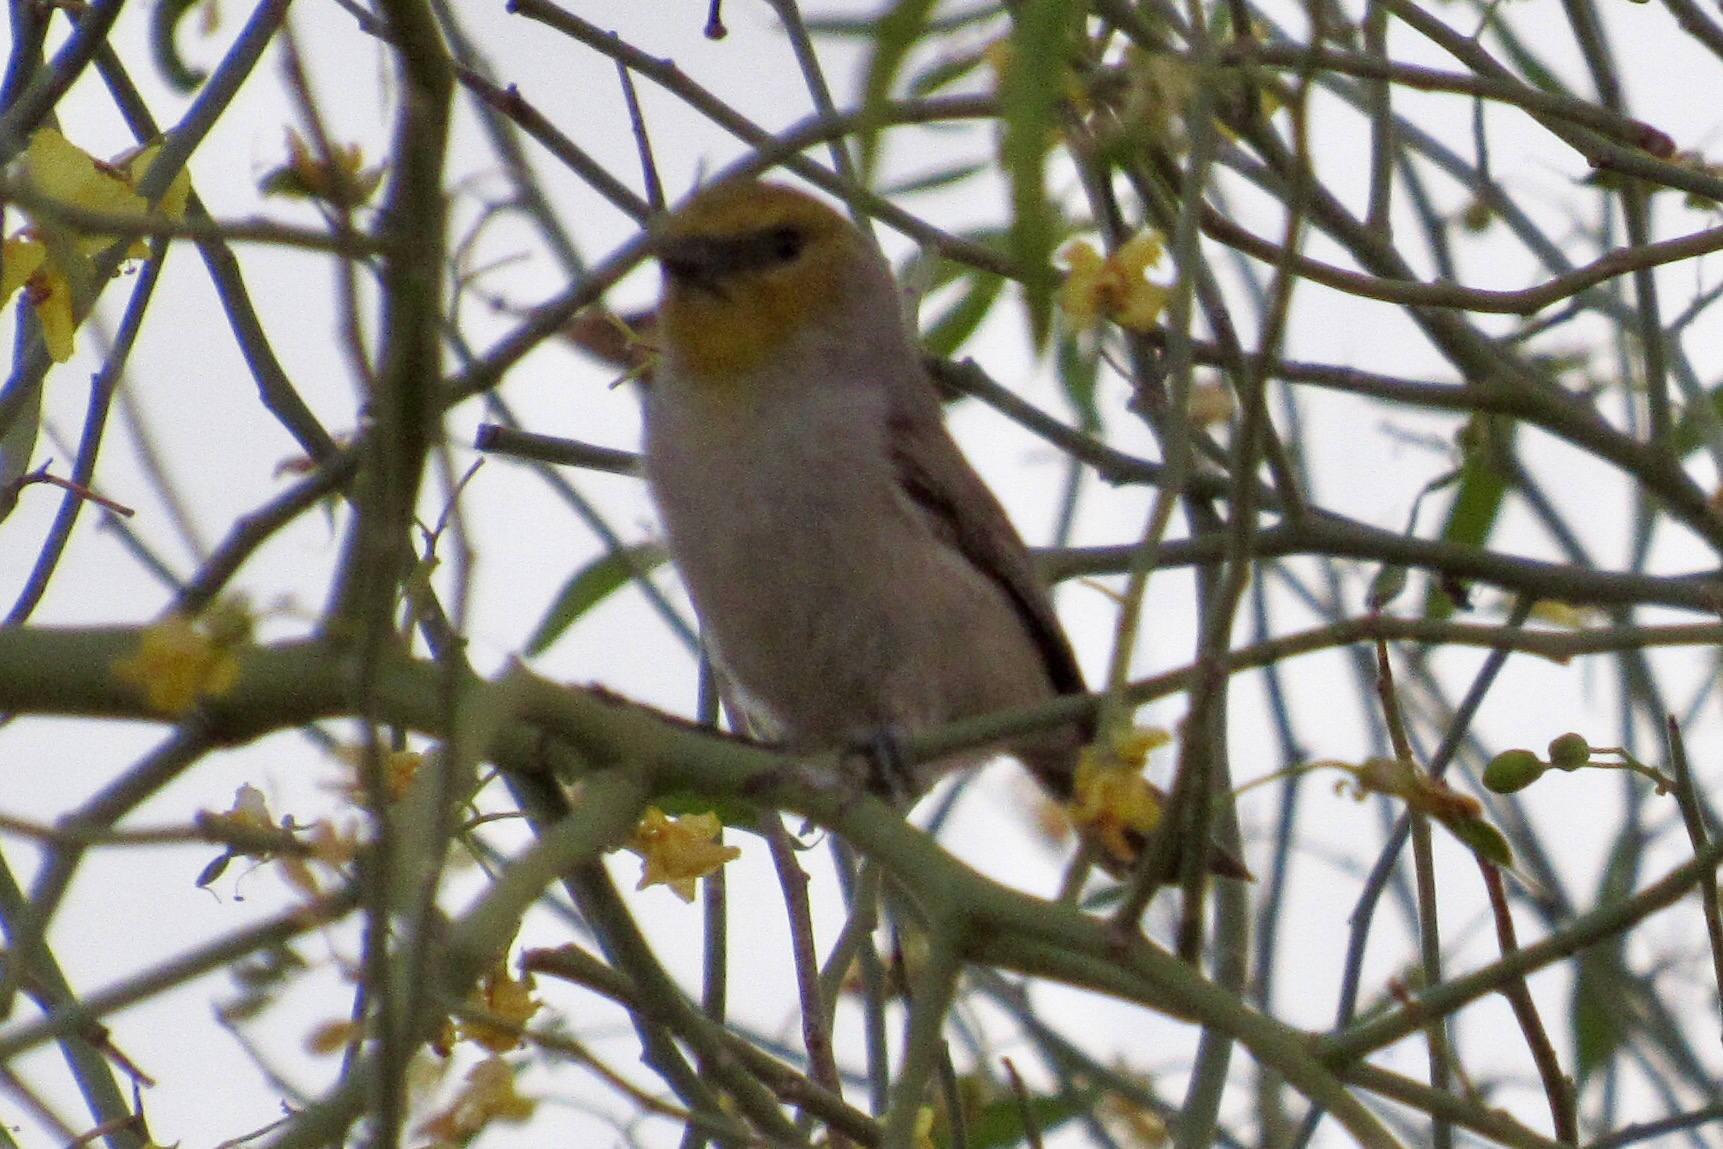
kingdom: Animalia
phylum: Chordata
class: Aves
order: Passeriformes
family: Remizidae
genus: Auriparus
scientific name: Auriparus flaviceps
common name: Verdin
